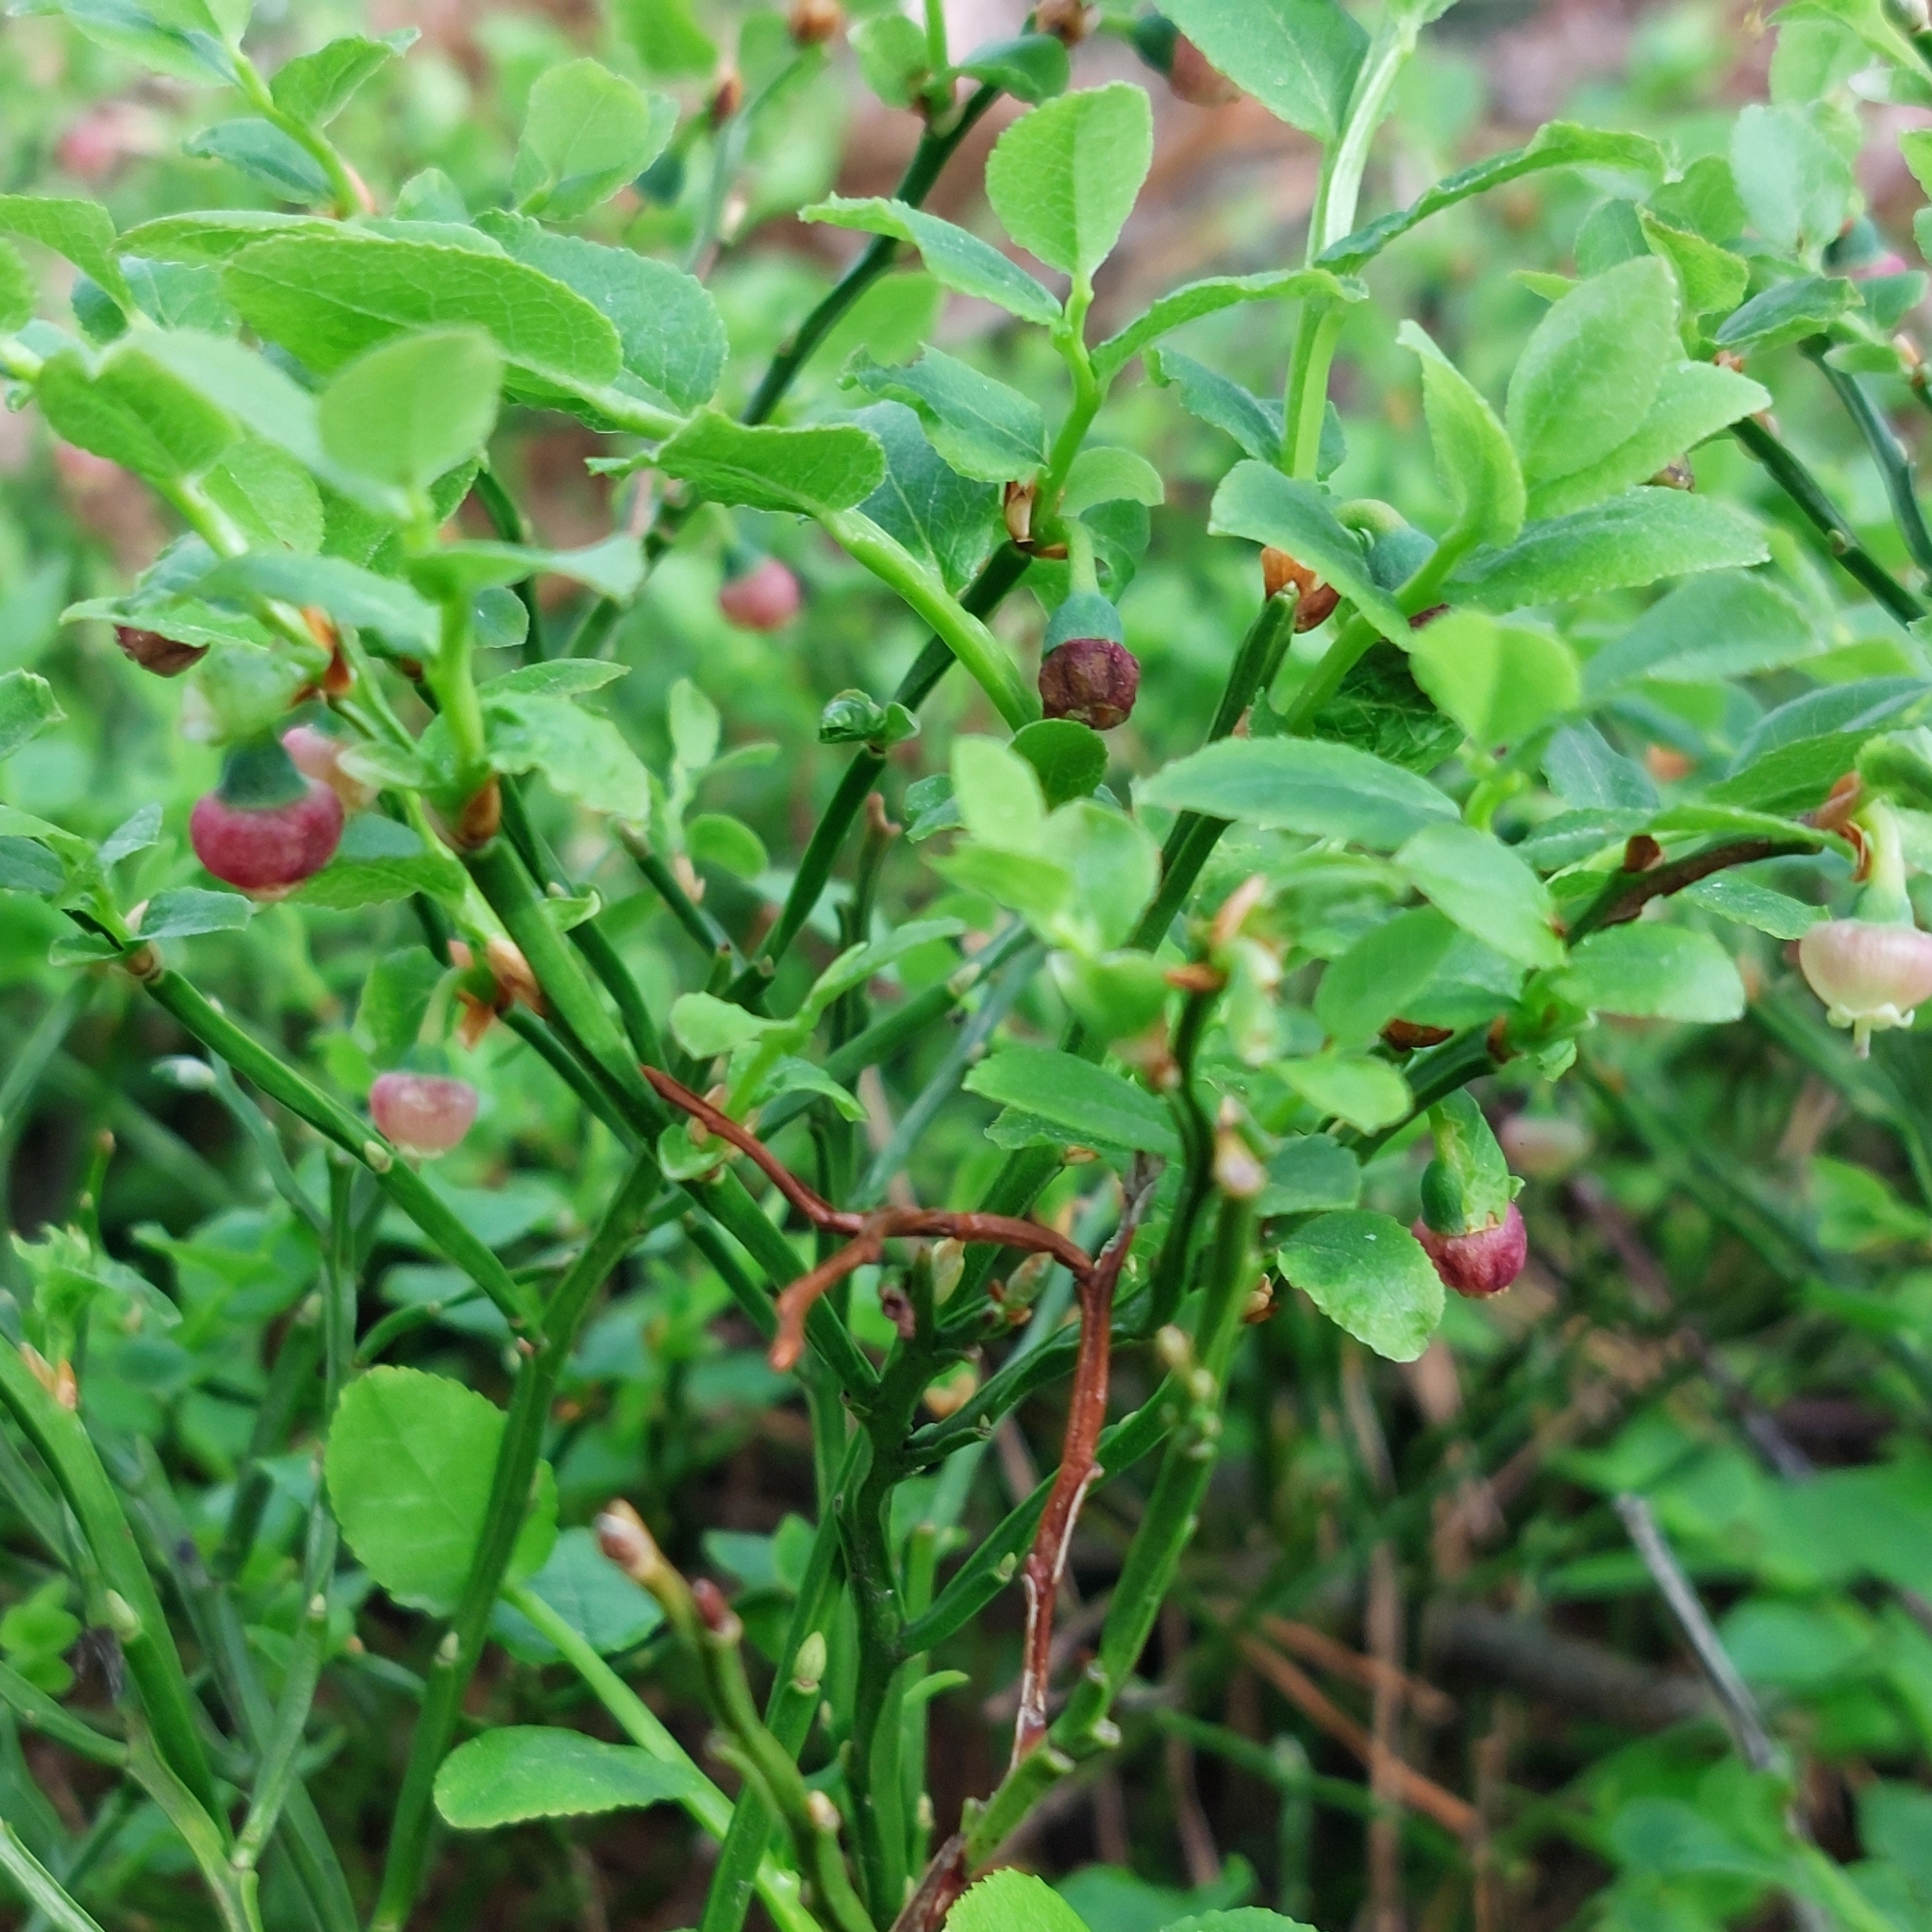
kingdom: Plantae
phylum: Tracheophyta
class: Magnoliopsida
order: Ericales
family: Ericaceae
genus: Vaccinium
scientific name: Vaccinium myrtillus
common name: Bilberry
